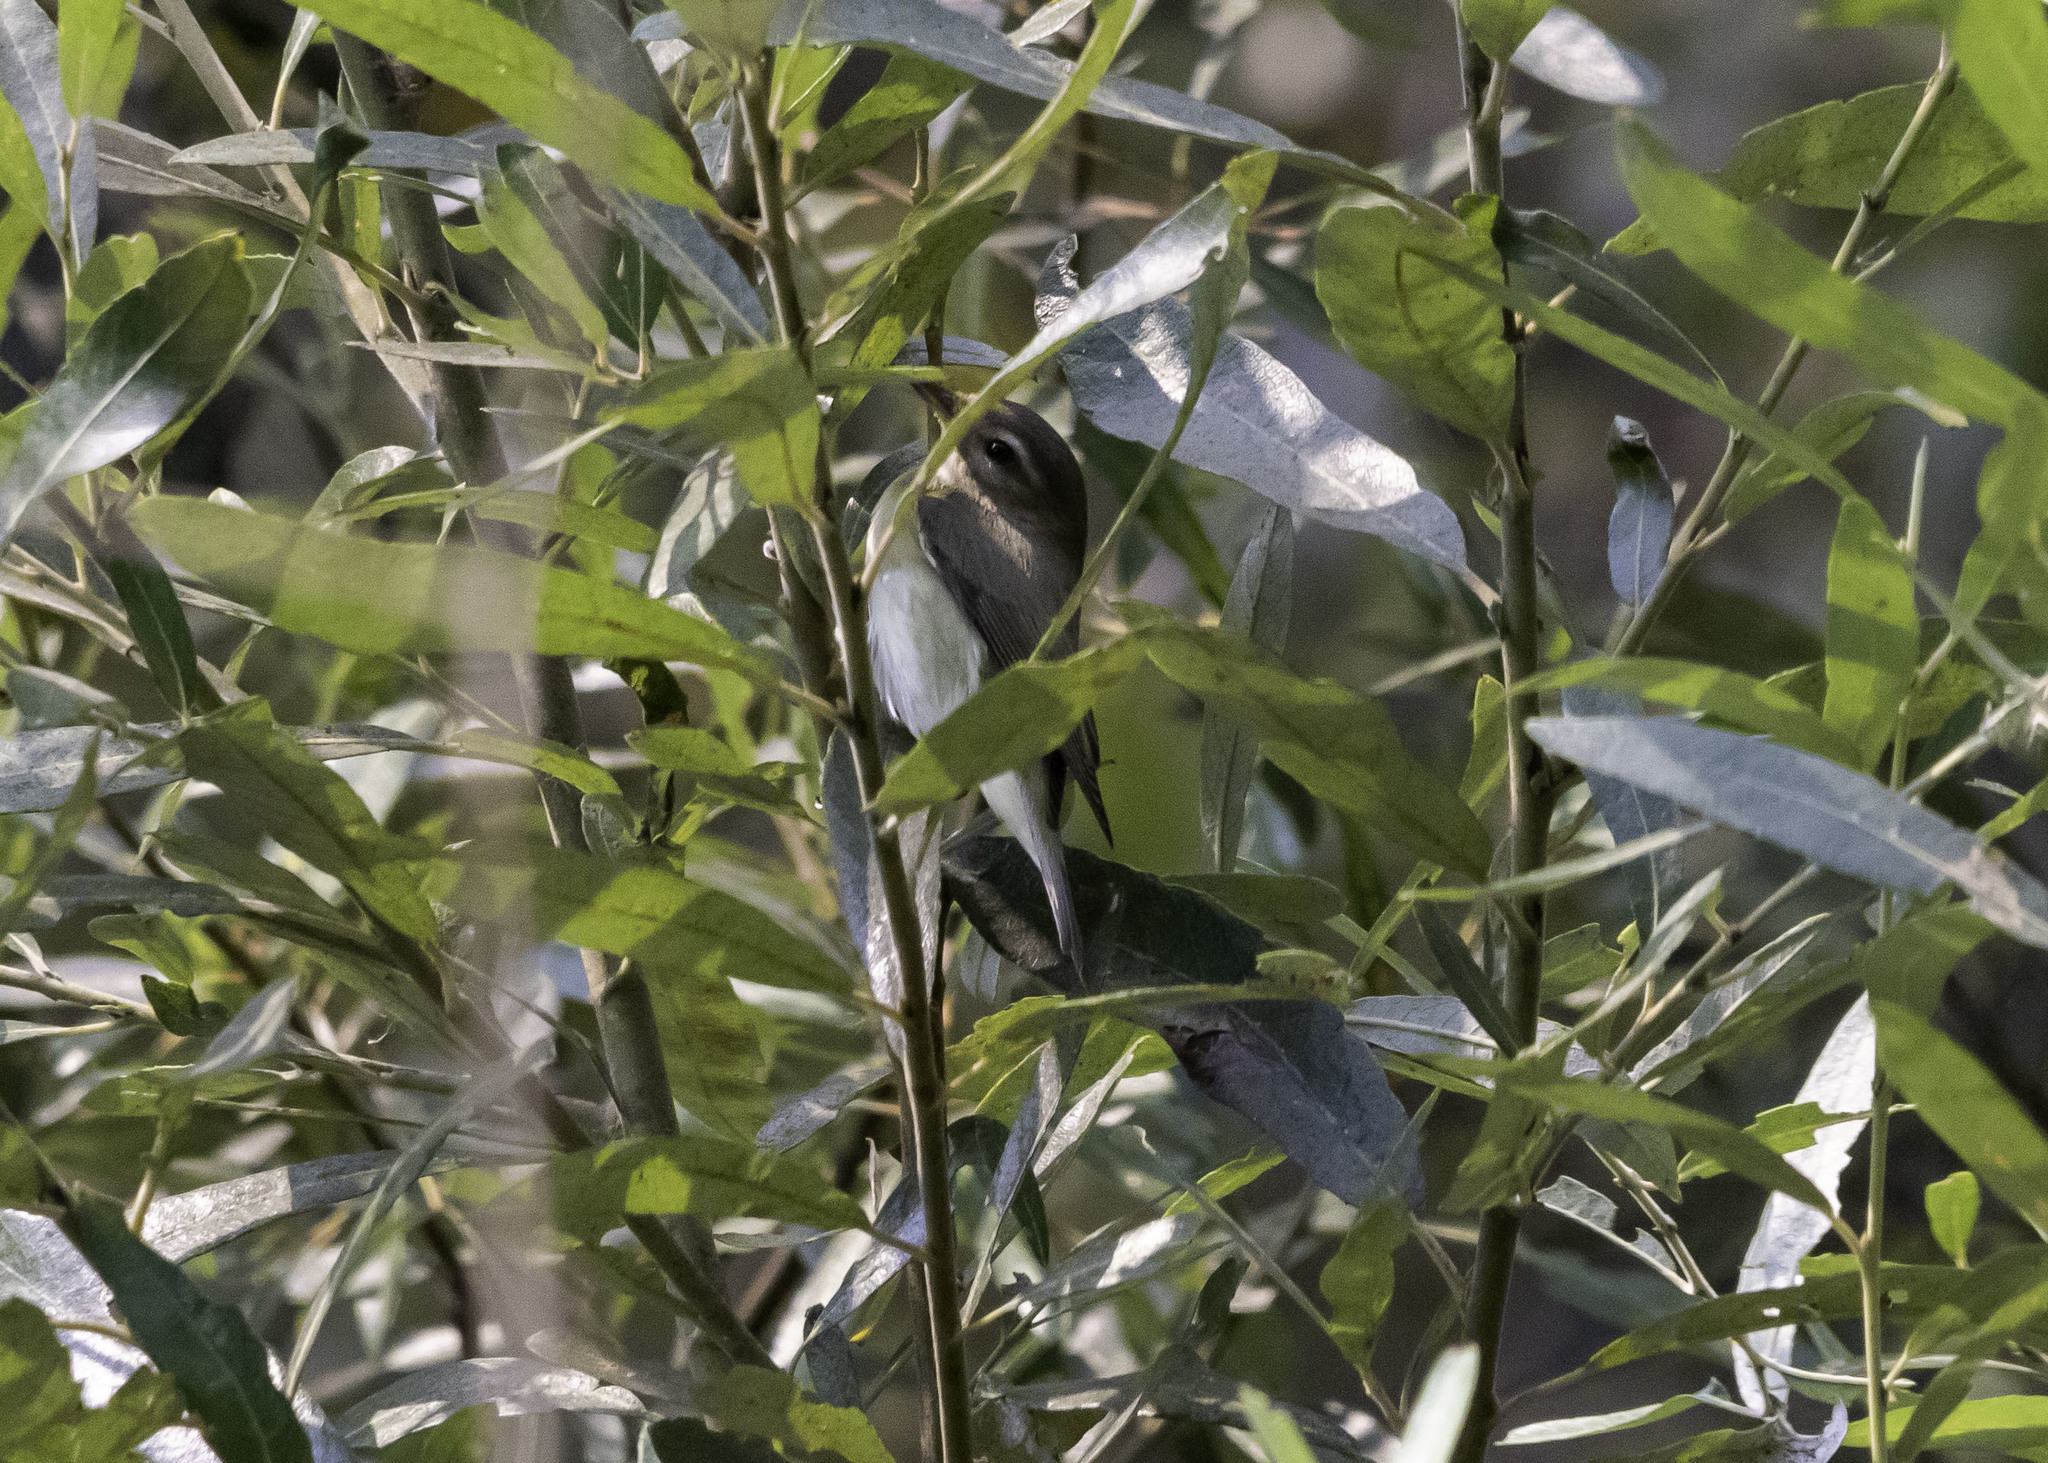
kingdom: Animalia
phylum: Chordata
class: Aves
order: Passeriformes
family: Vireonidae
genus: Vireo
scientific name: Vireo gilvus
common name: Warbling vireo
